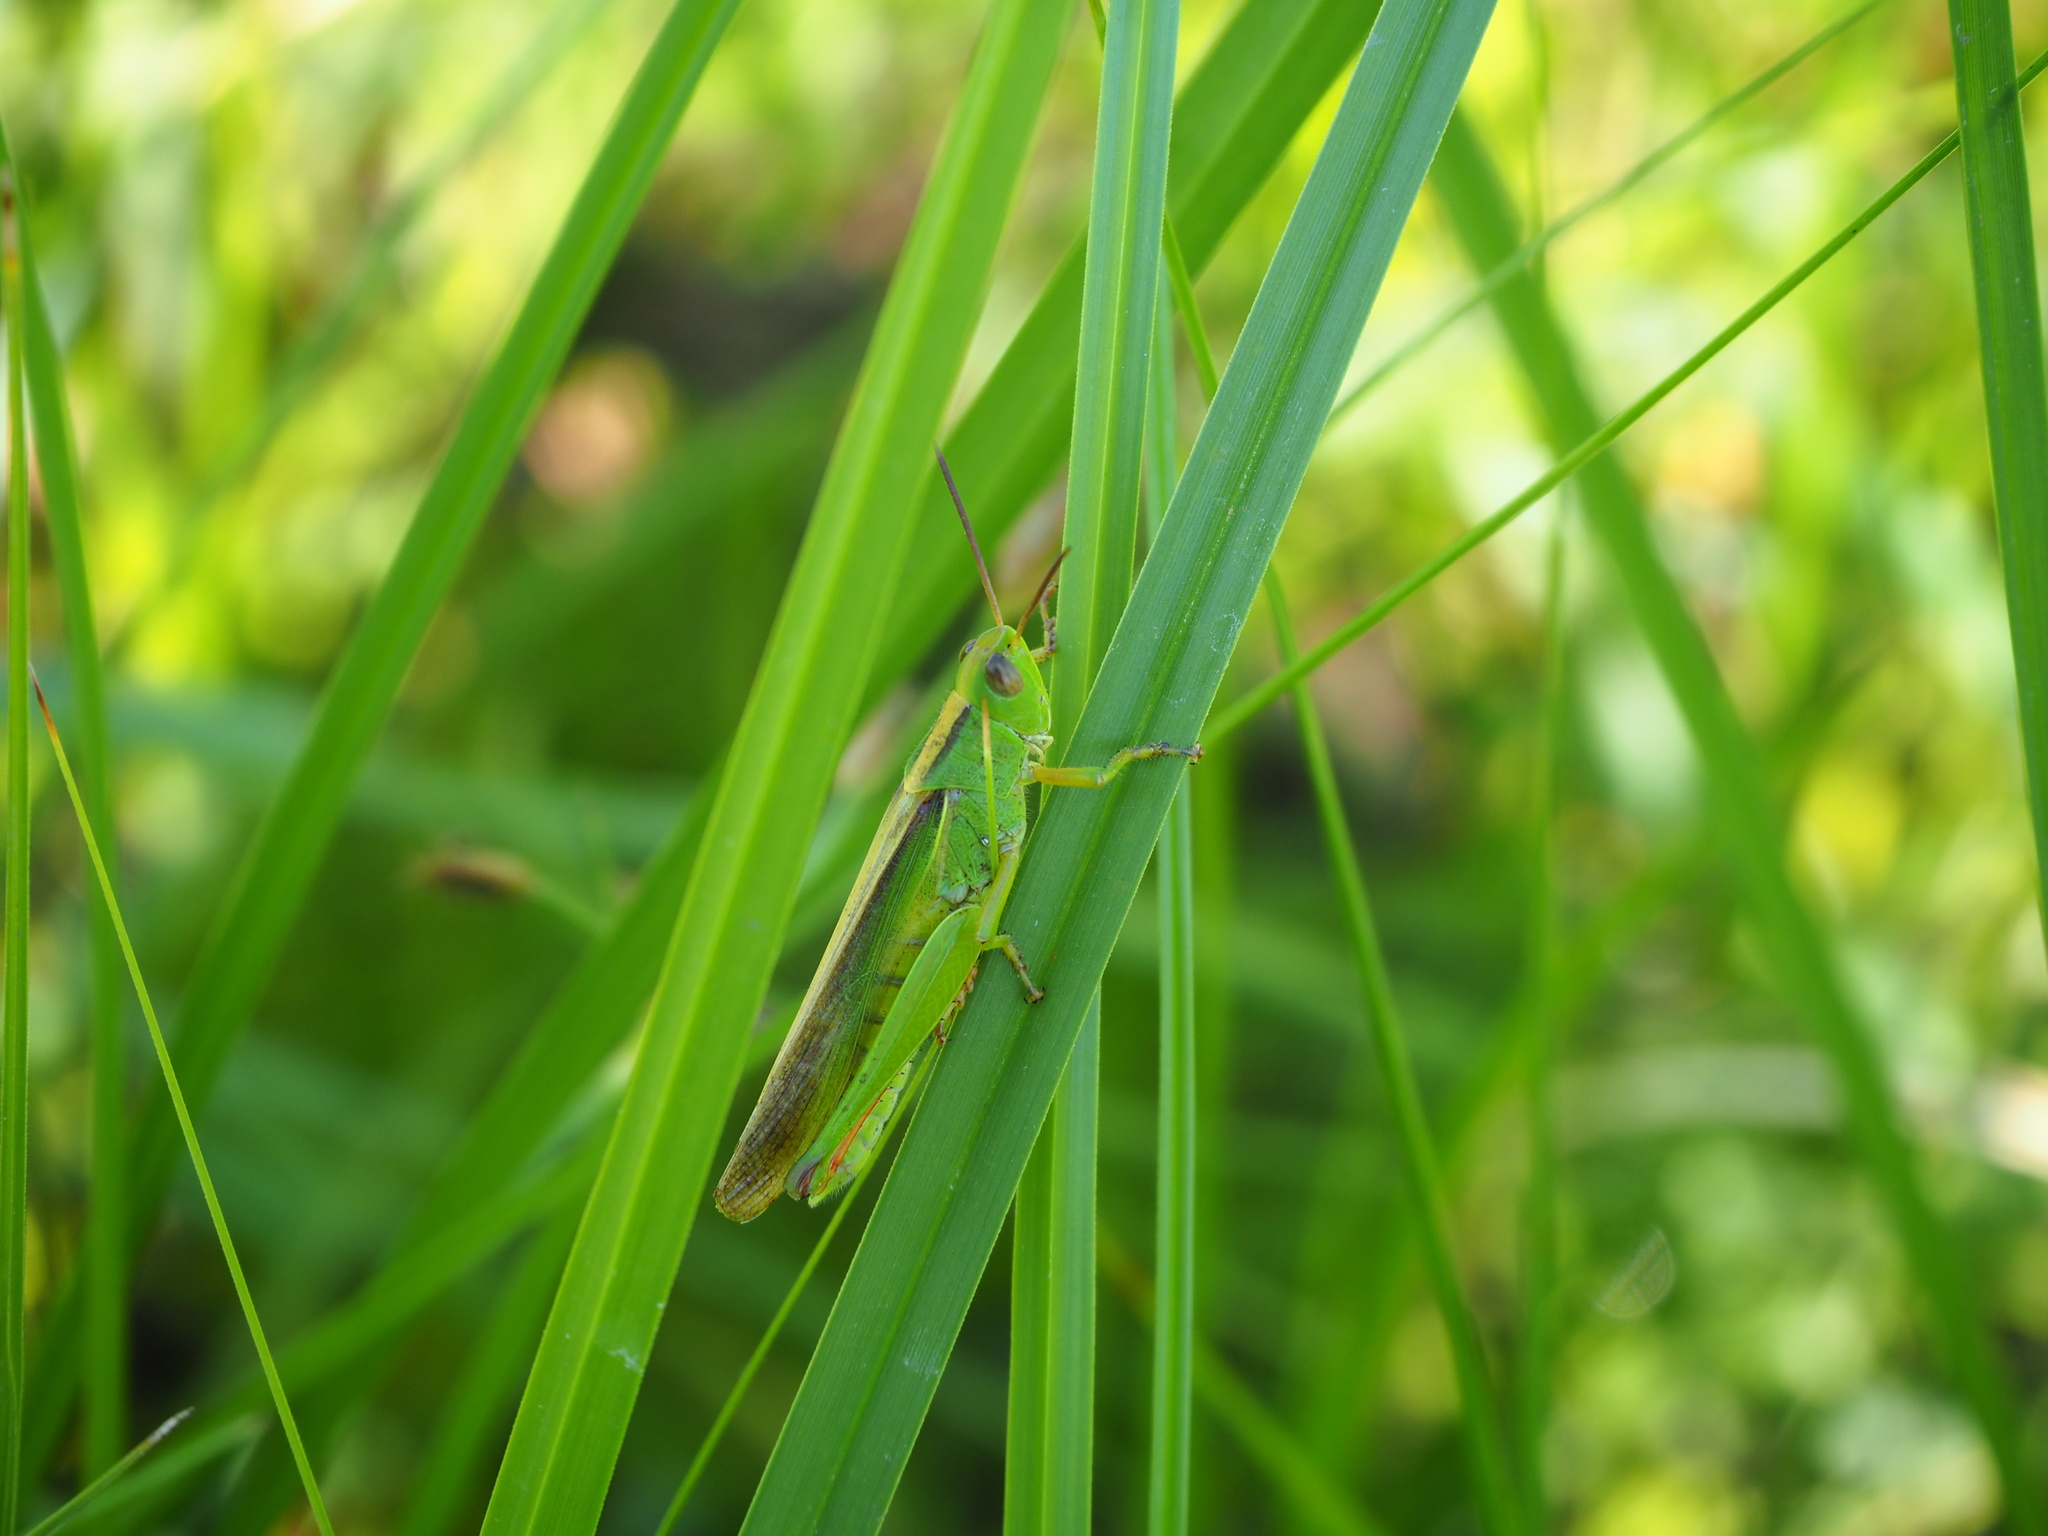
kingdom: Animalia
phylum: Arthropoda
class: Insecta
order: Orthoptera
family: Acrididae
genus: Paracinema
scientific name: Paracinema tricolor
